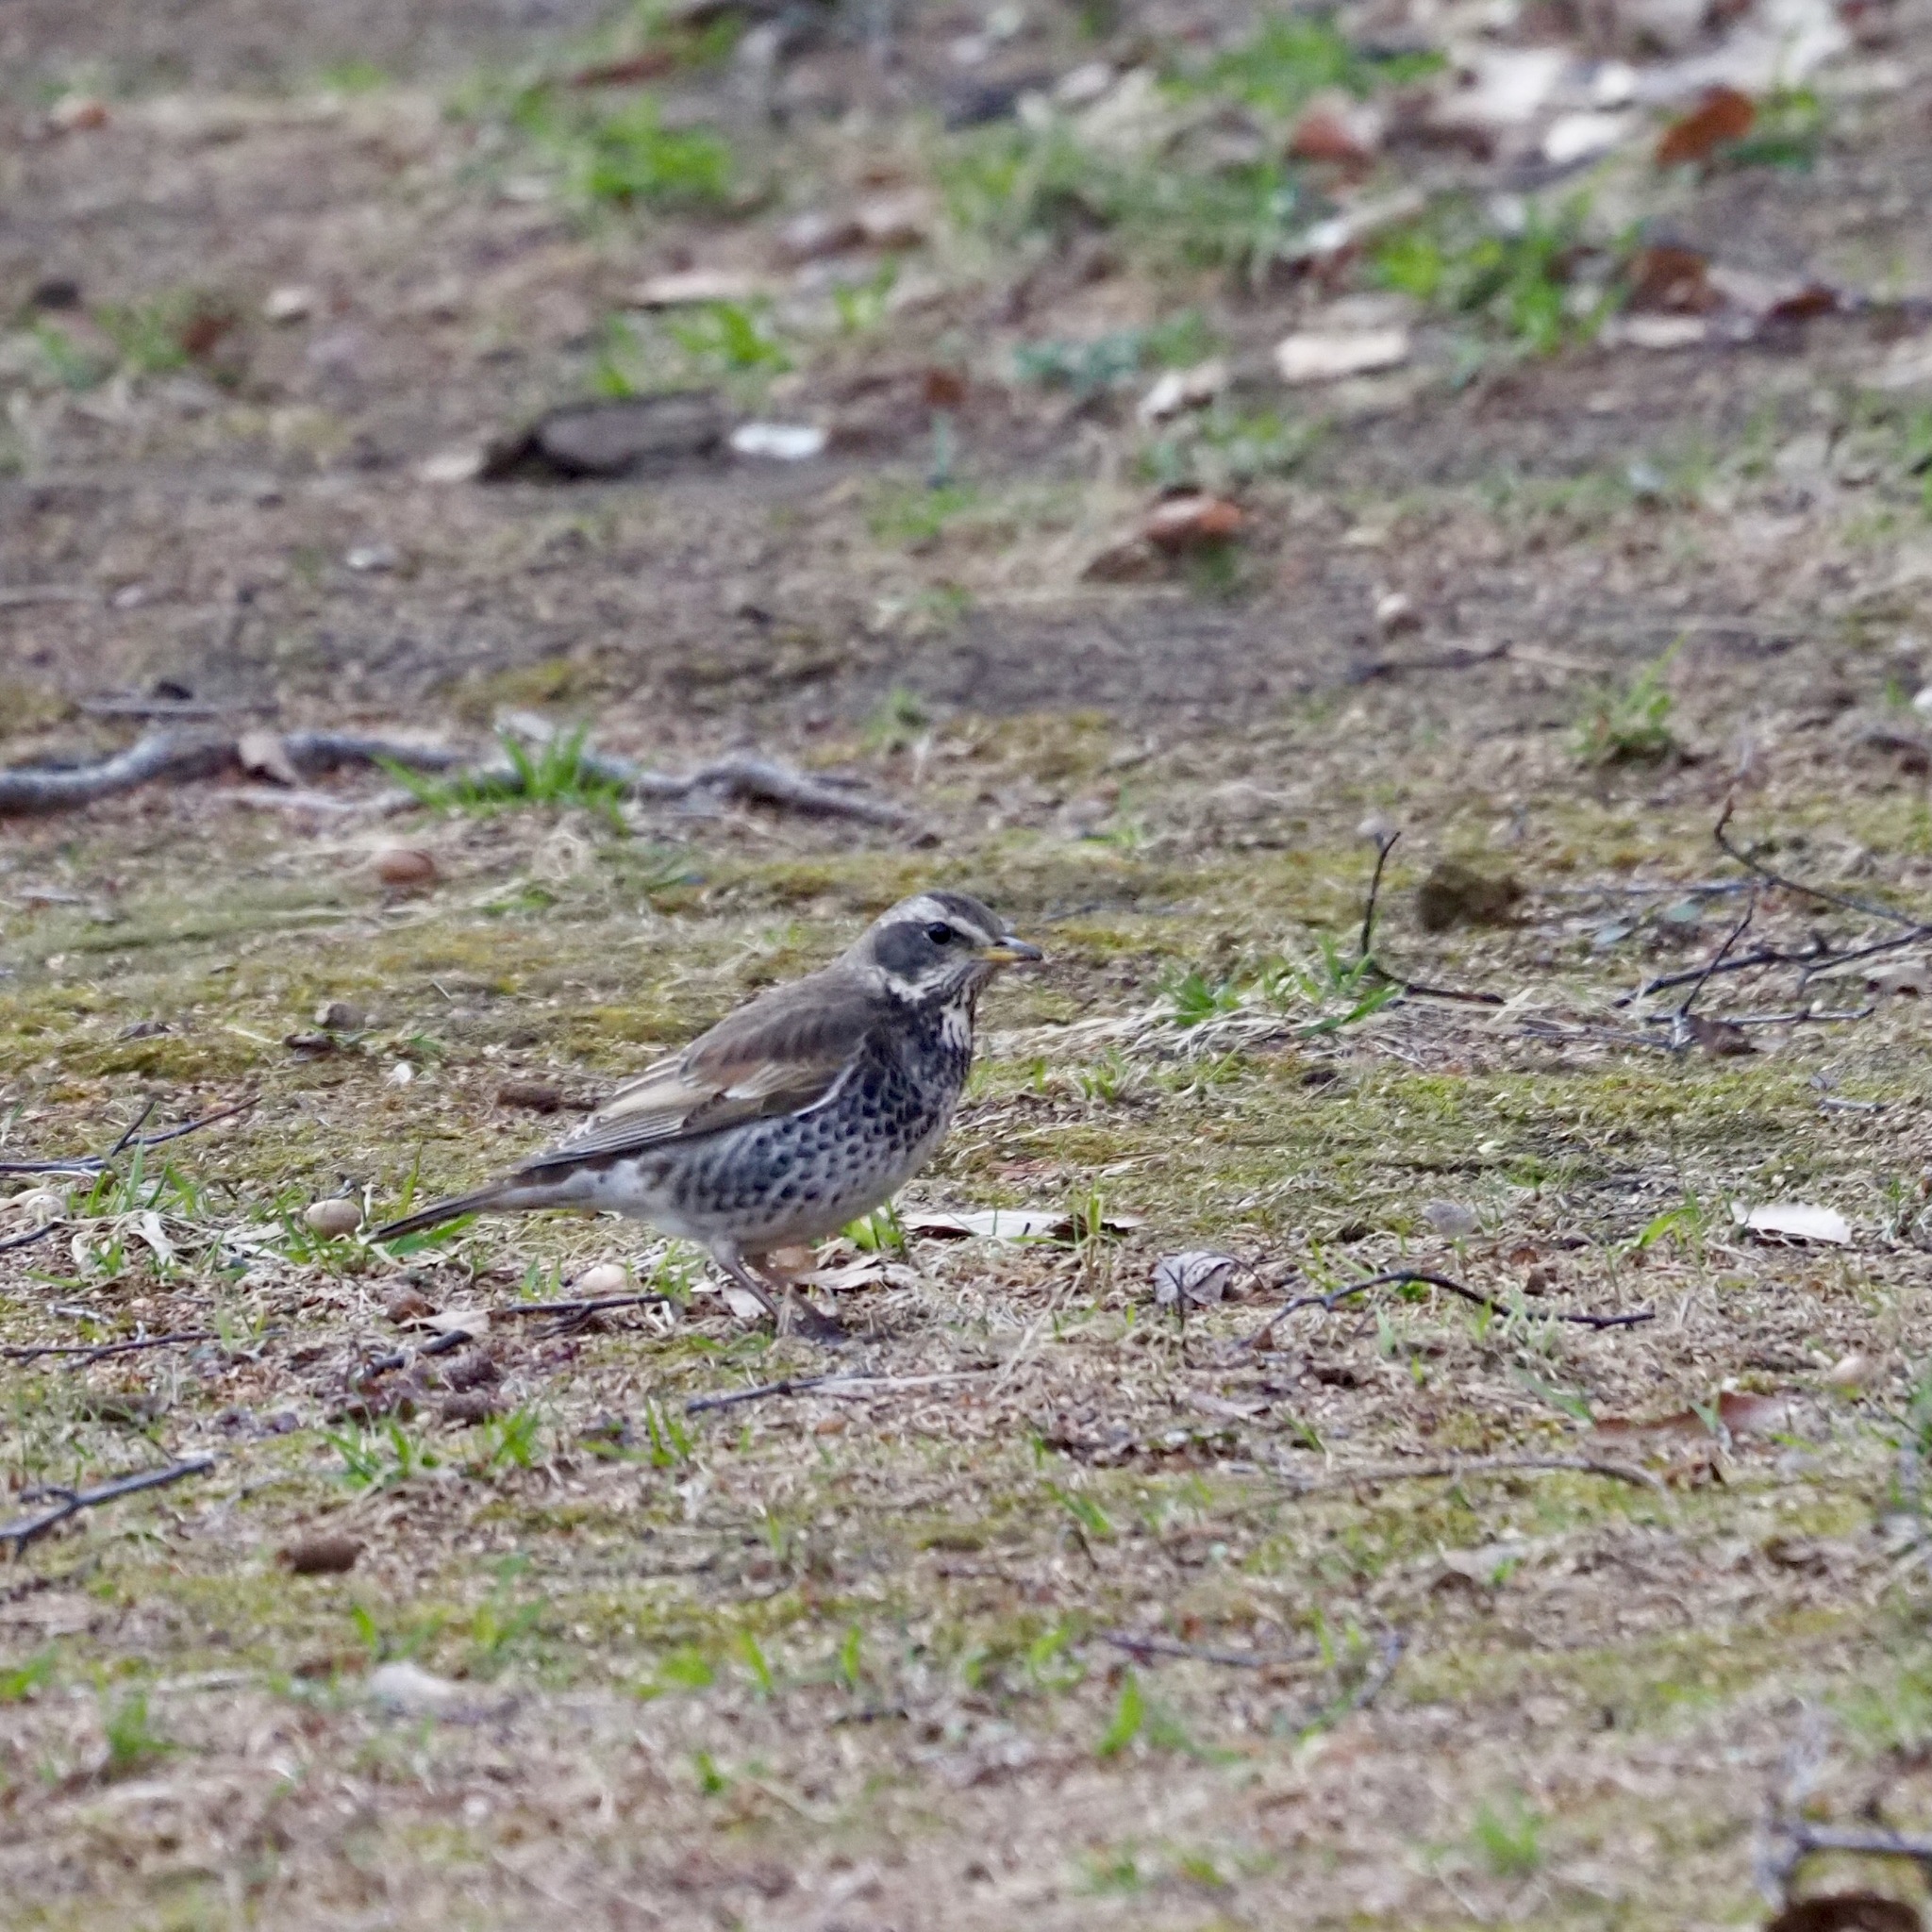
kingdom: Animalia
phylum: Chordata
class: Aves
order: Passeriformes
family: Turdidae
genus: Turdus
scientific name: Turdus eunomus
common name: Dusky thrush
